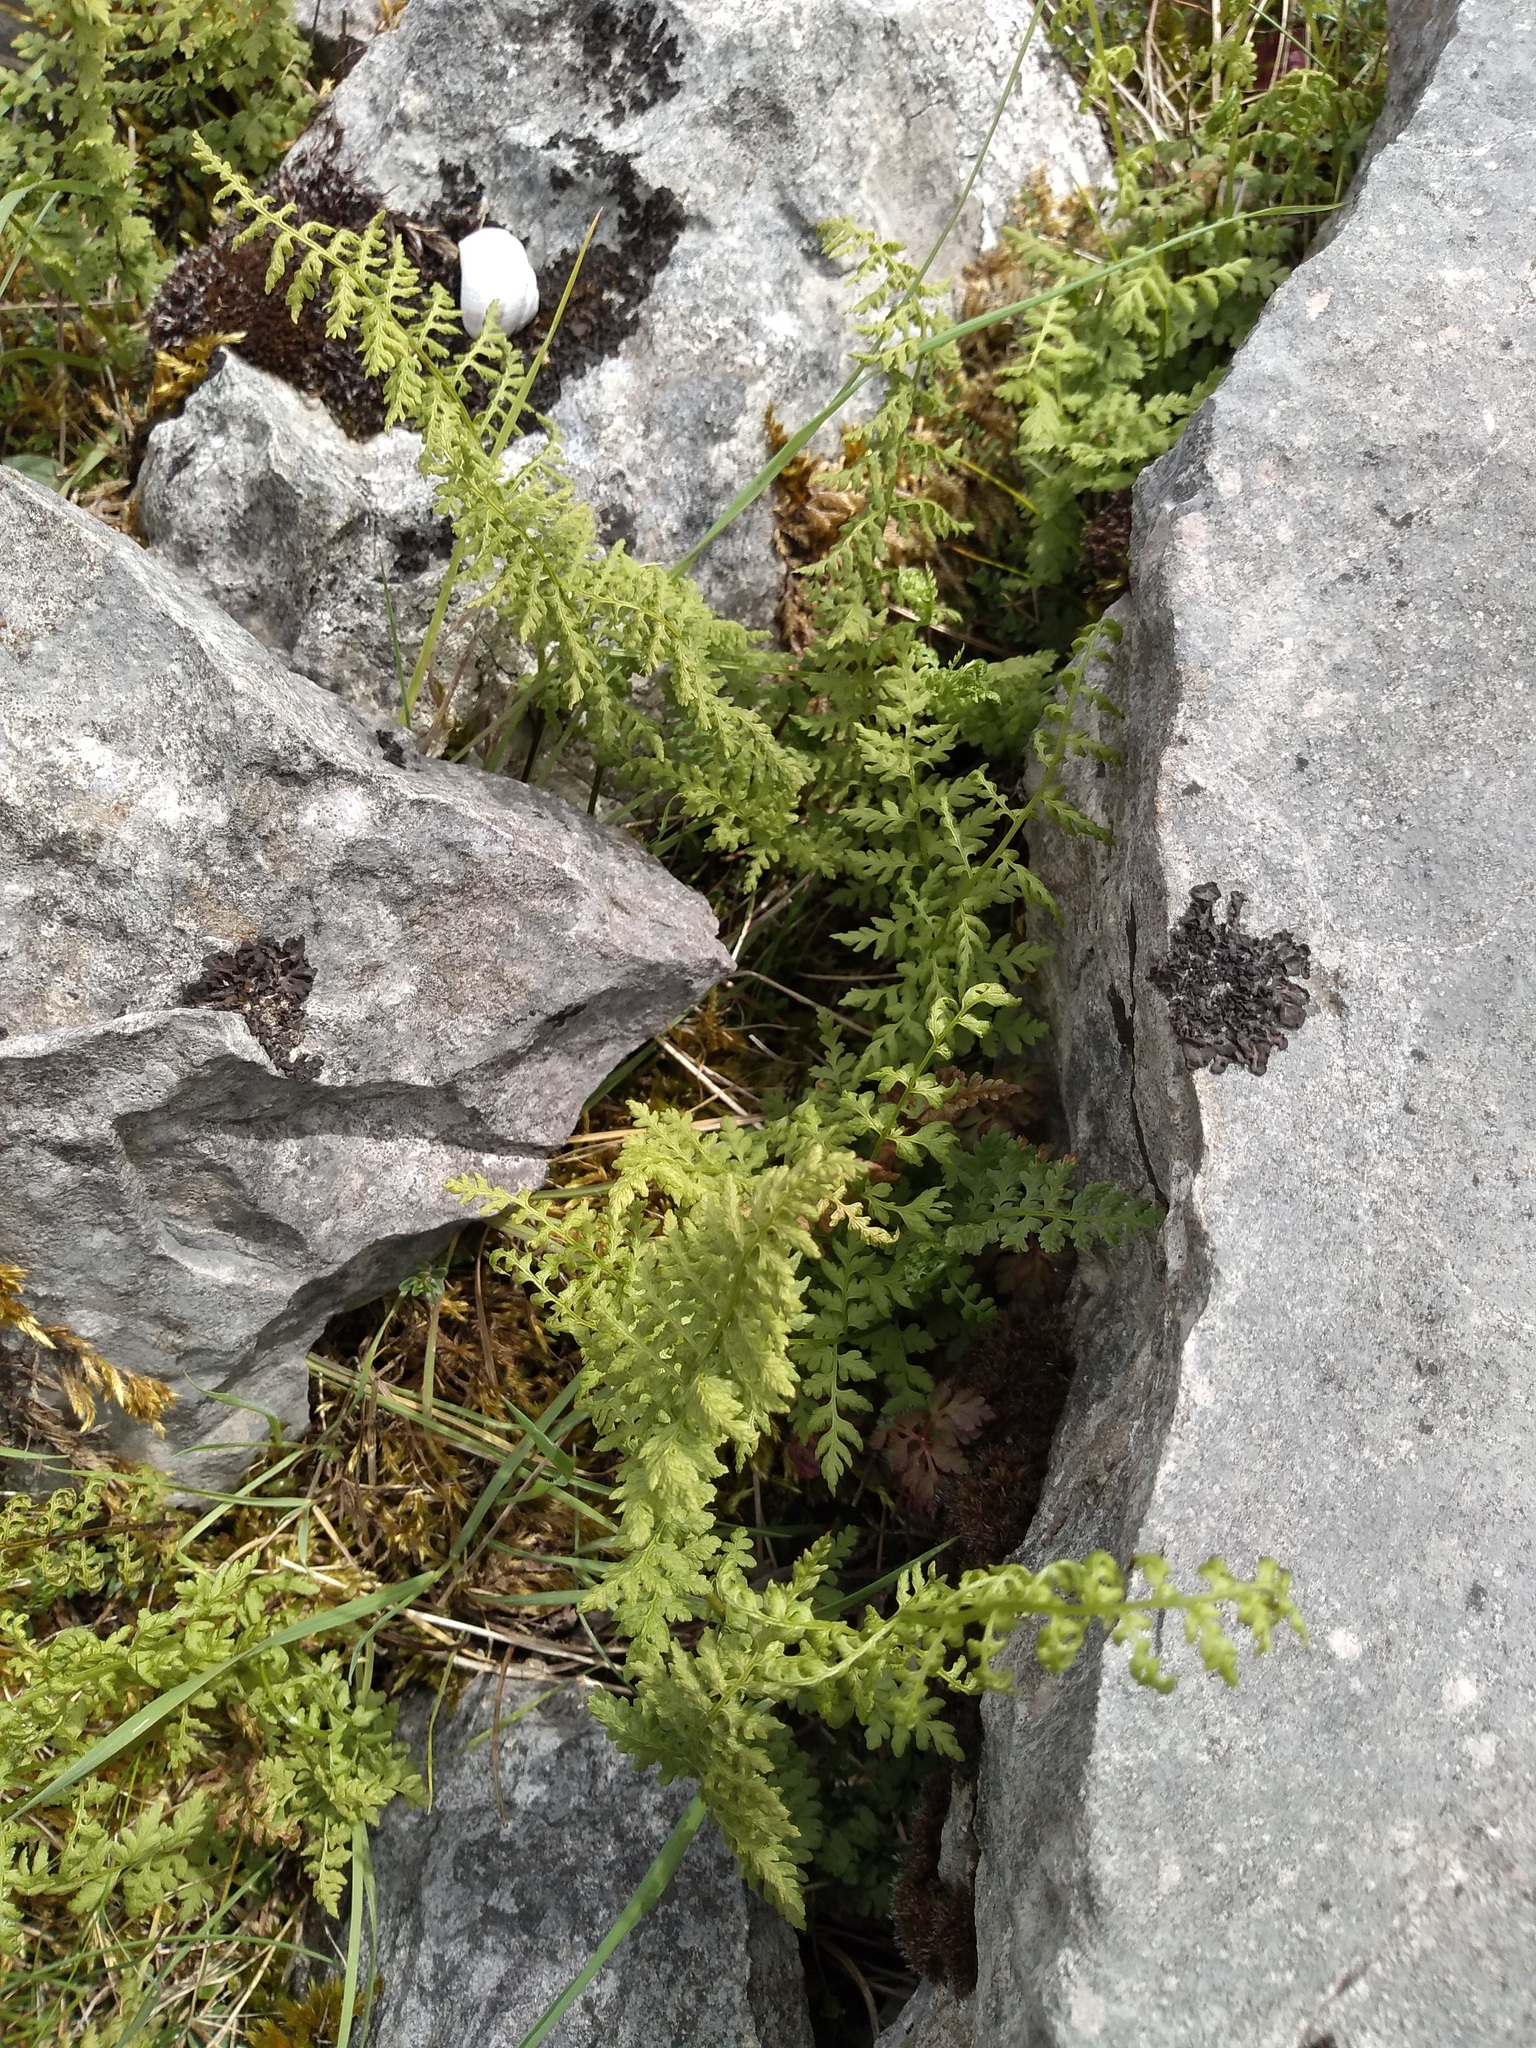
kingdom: Plantae
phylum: Tracheophyta
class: Polypodiopsida
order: Polypodiales
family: Cystopteridaceae
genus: Cystopteris
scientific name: Cystopteris fragilis
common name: Brittle bladder fern
